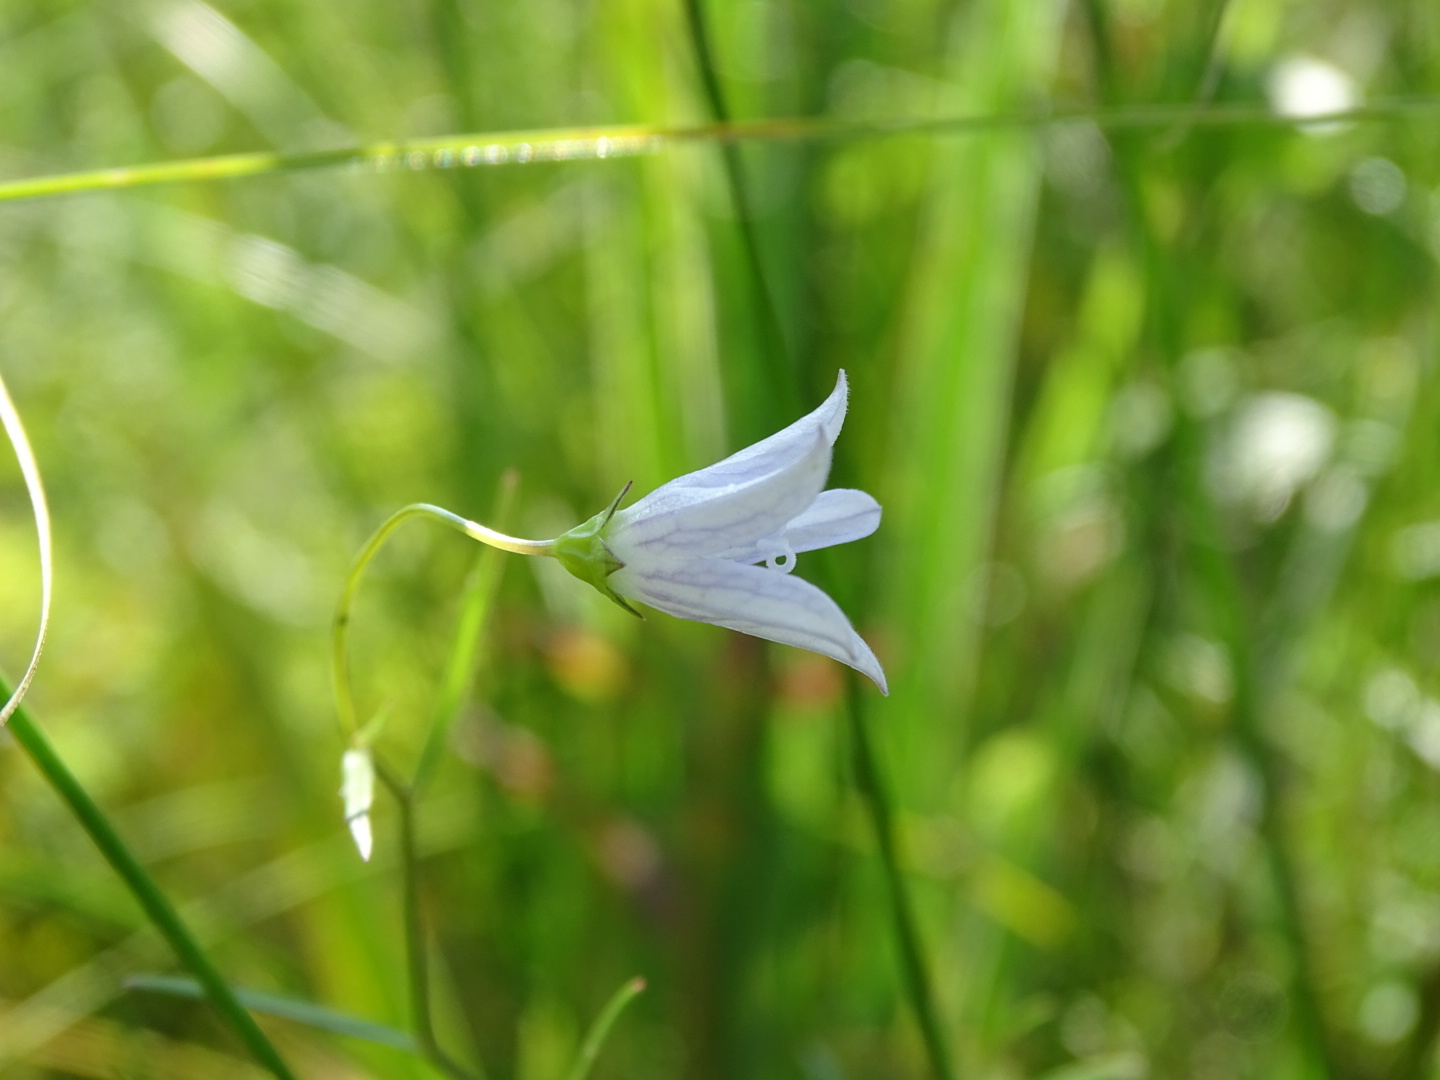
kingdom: Plantae
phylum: Tracheophyta
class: Magnoliopsida
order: Asterales
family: Campanulaceae
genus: Palustricodon
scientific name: Palustricodon aparinoides
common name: Bedstraw bellflower
